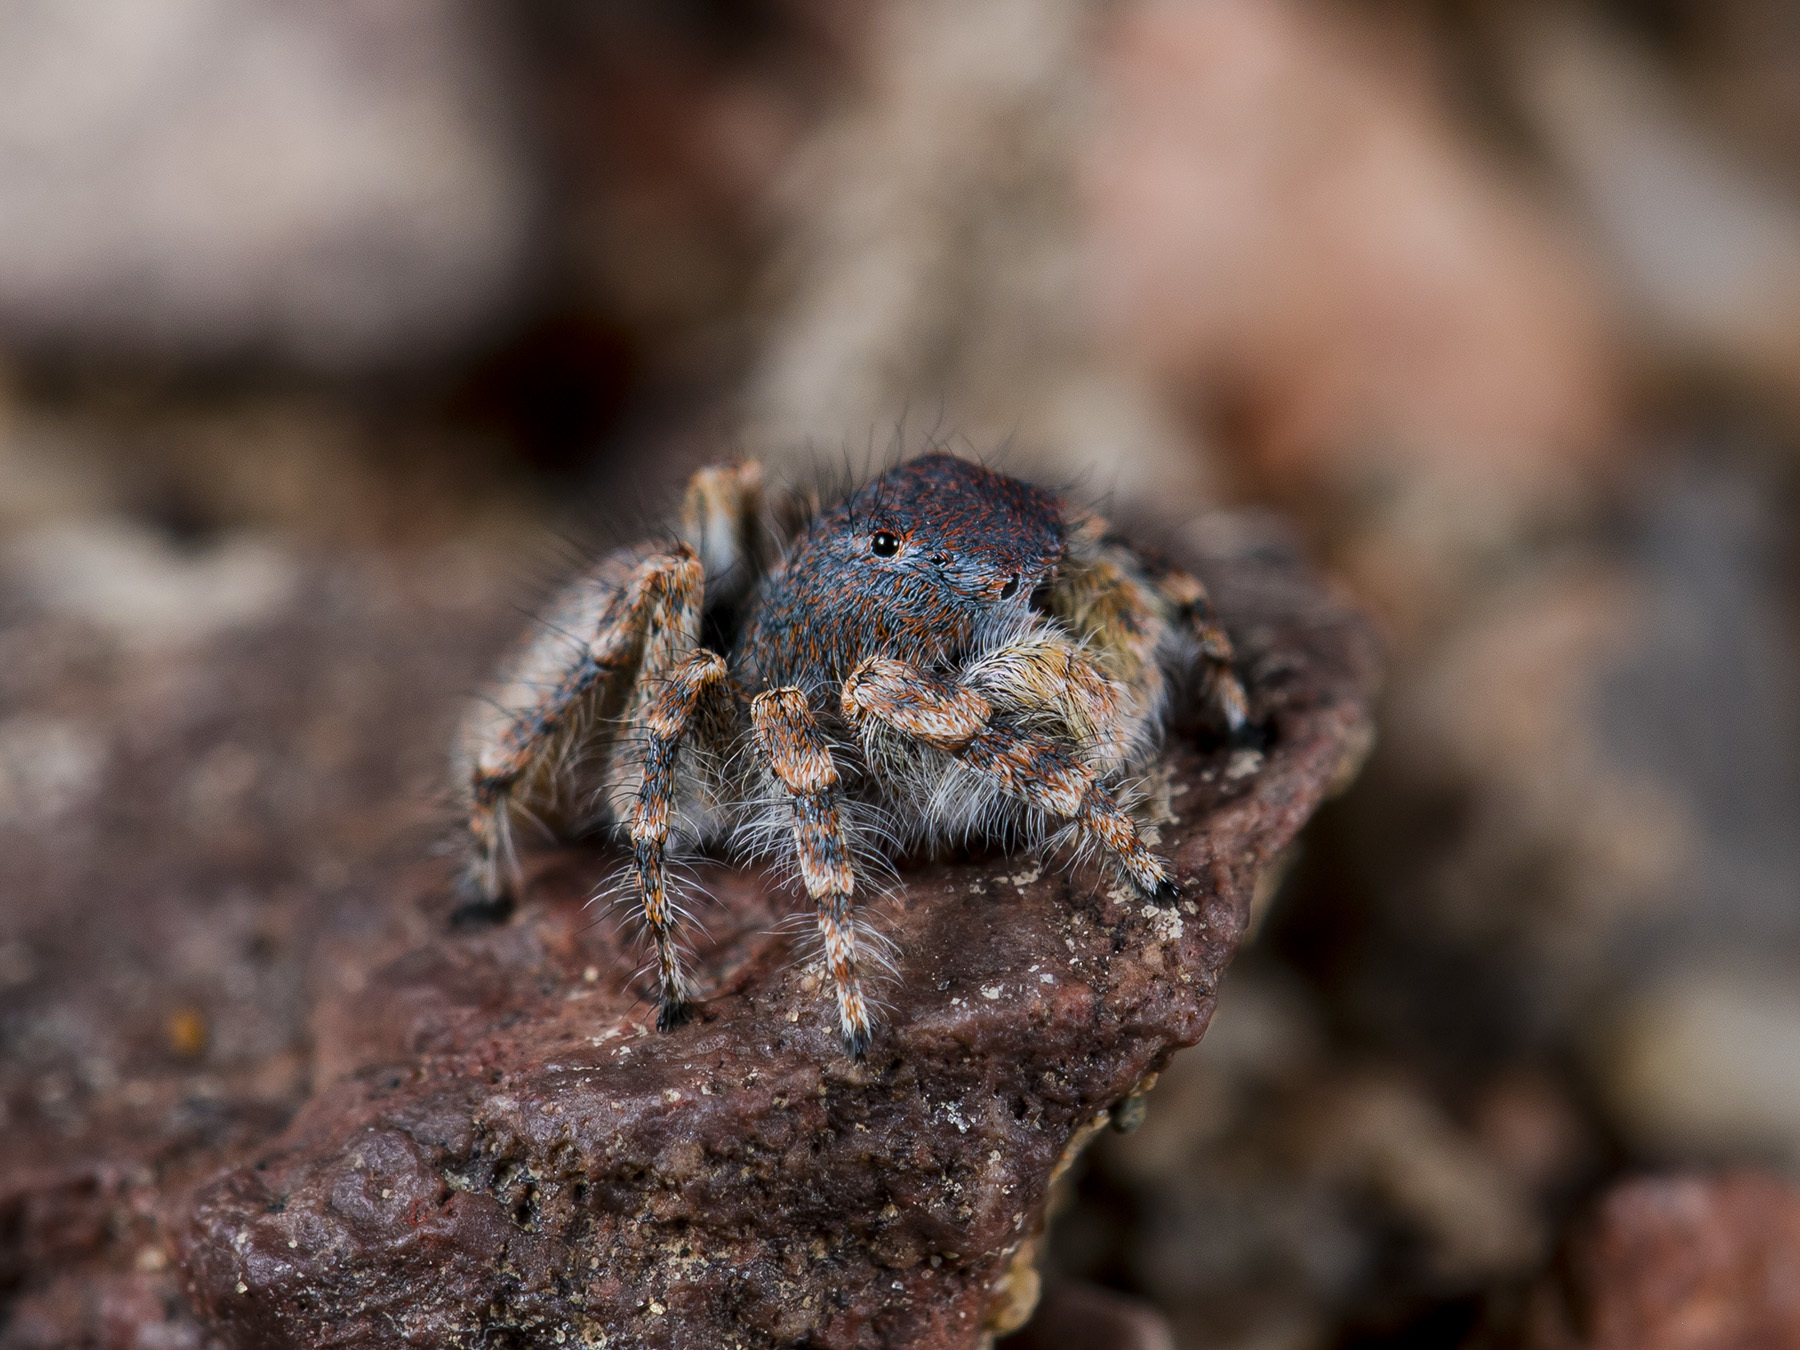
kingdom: Animalia
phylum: Arthropoda
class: Arachnida
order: Araneae
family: Salticidae
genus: Yllenus
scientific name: Yllenus zyuzini
